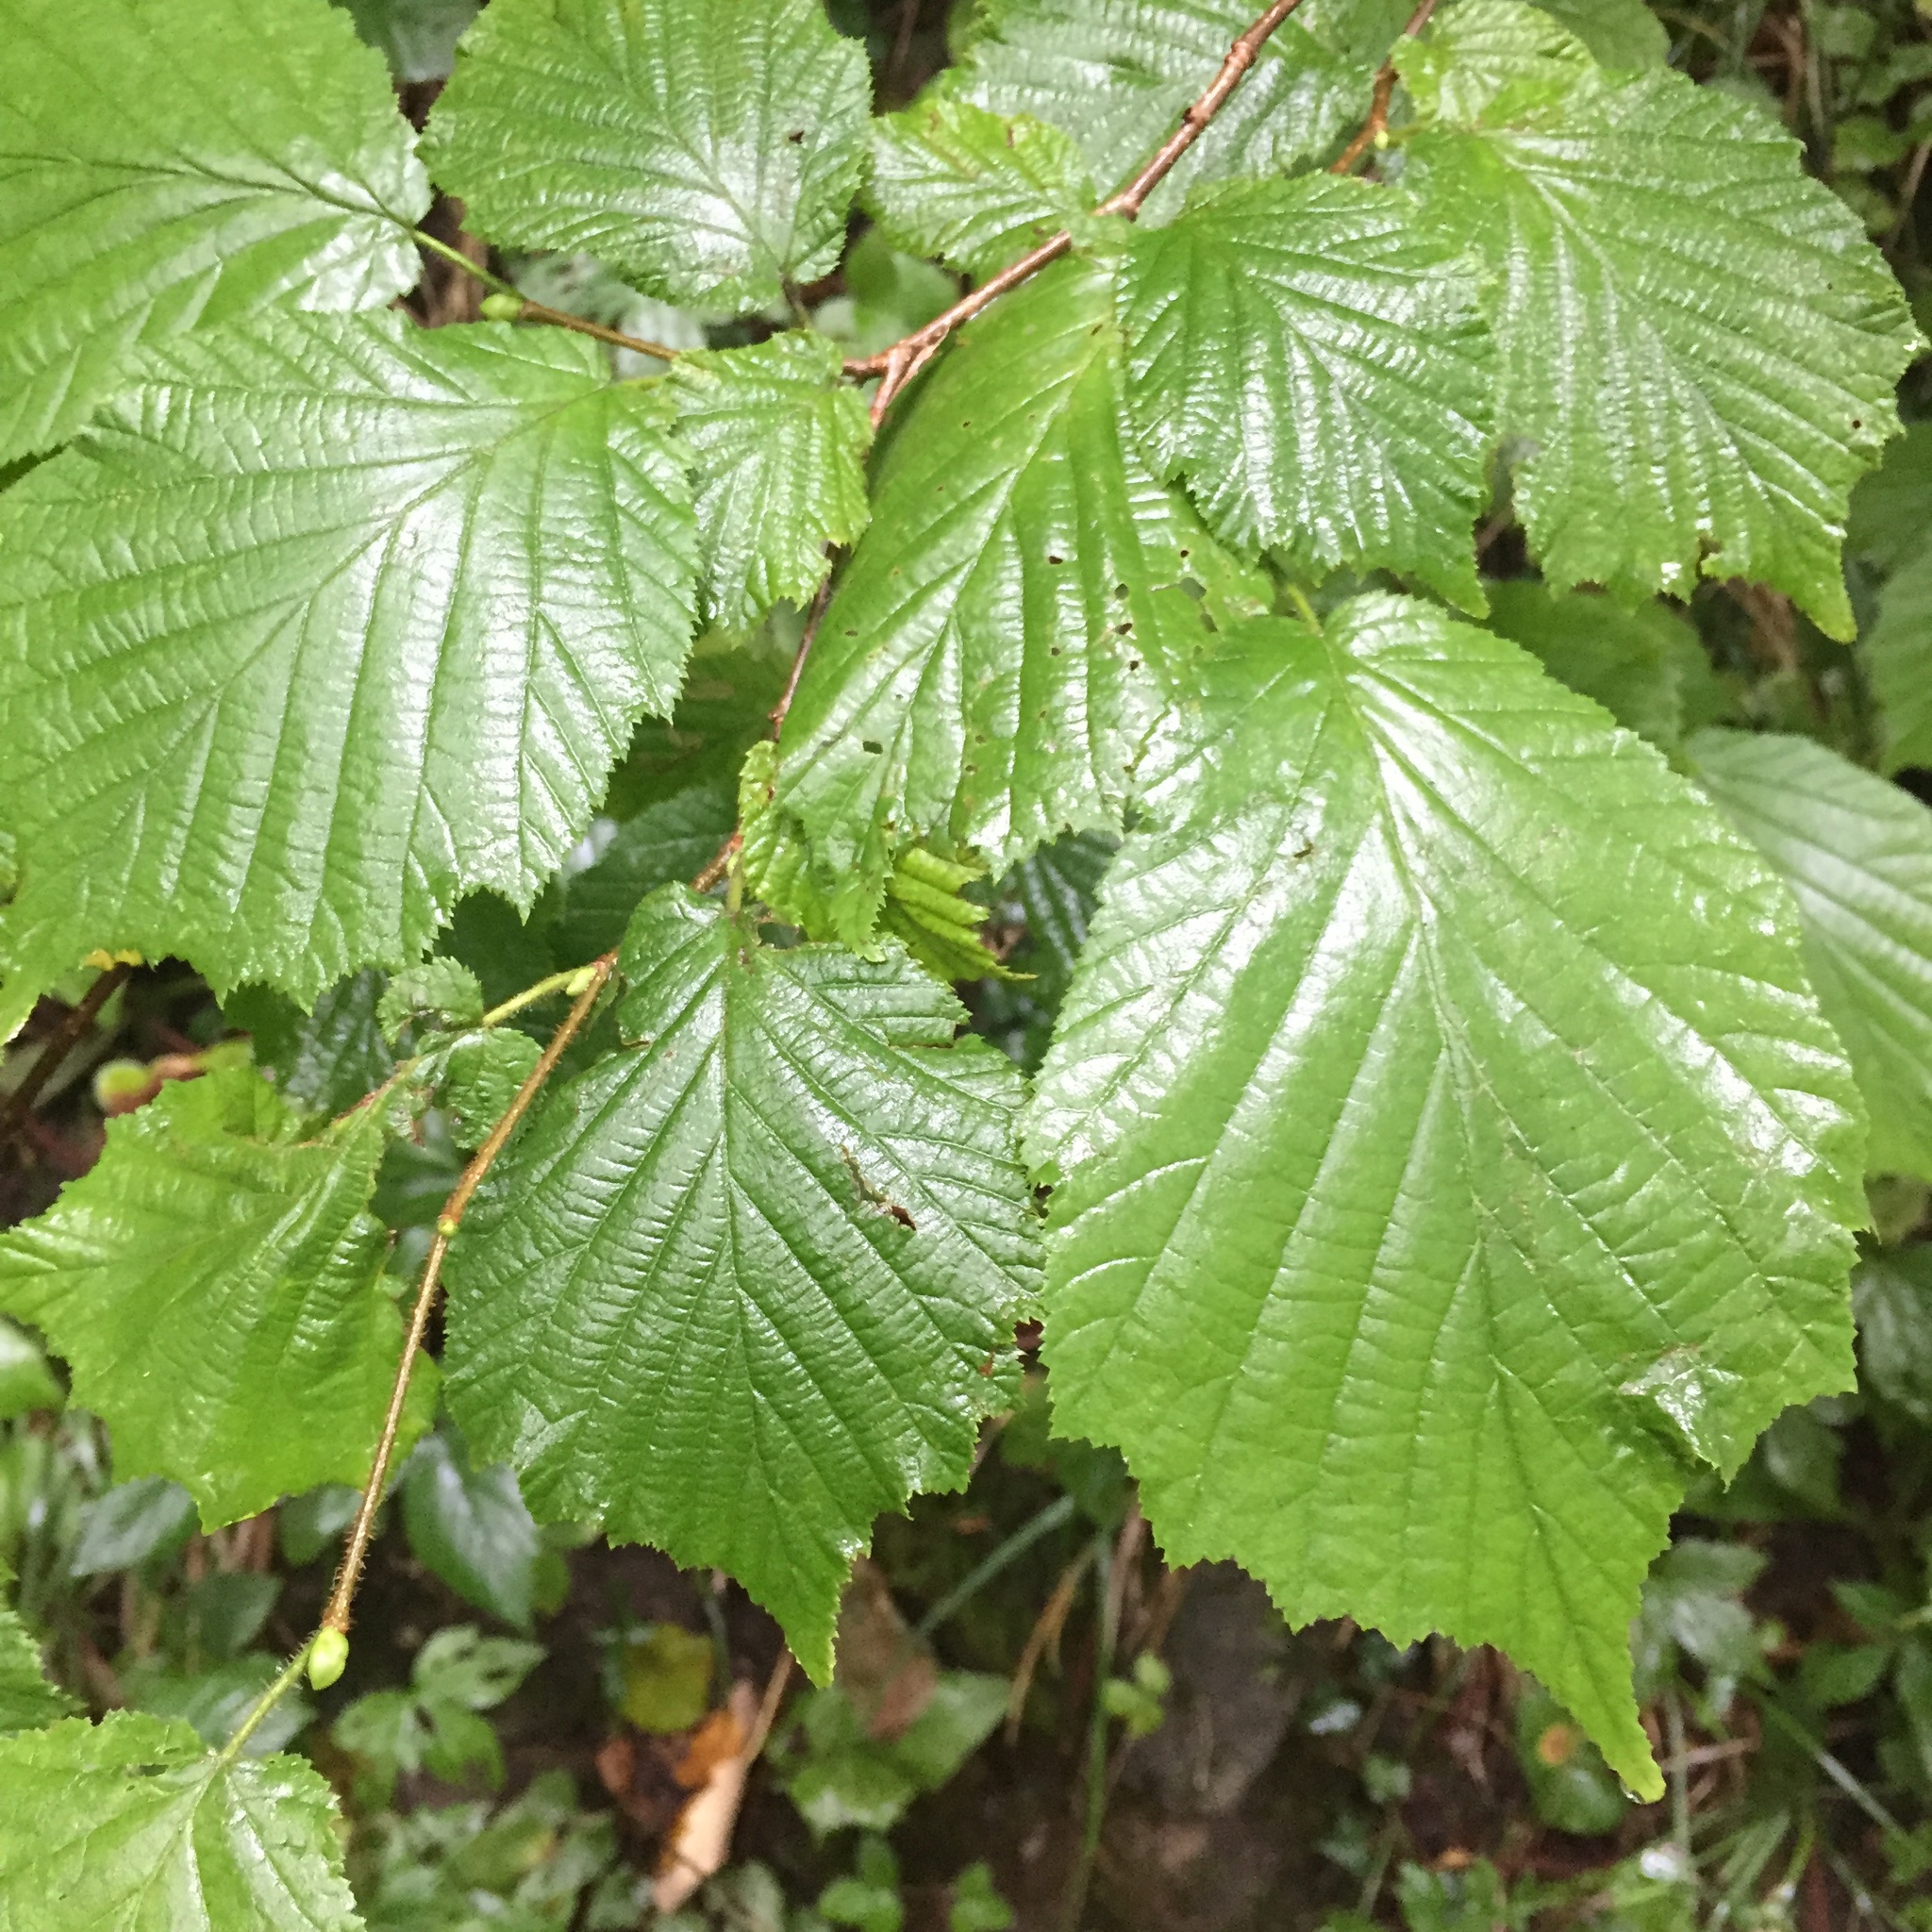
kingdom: Plantae
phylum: Tracheophyta
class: Magnoliopsida
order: Fagales
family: Betulaceae
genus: Corylus
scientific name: Corylus avellana
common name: European hazel
